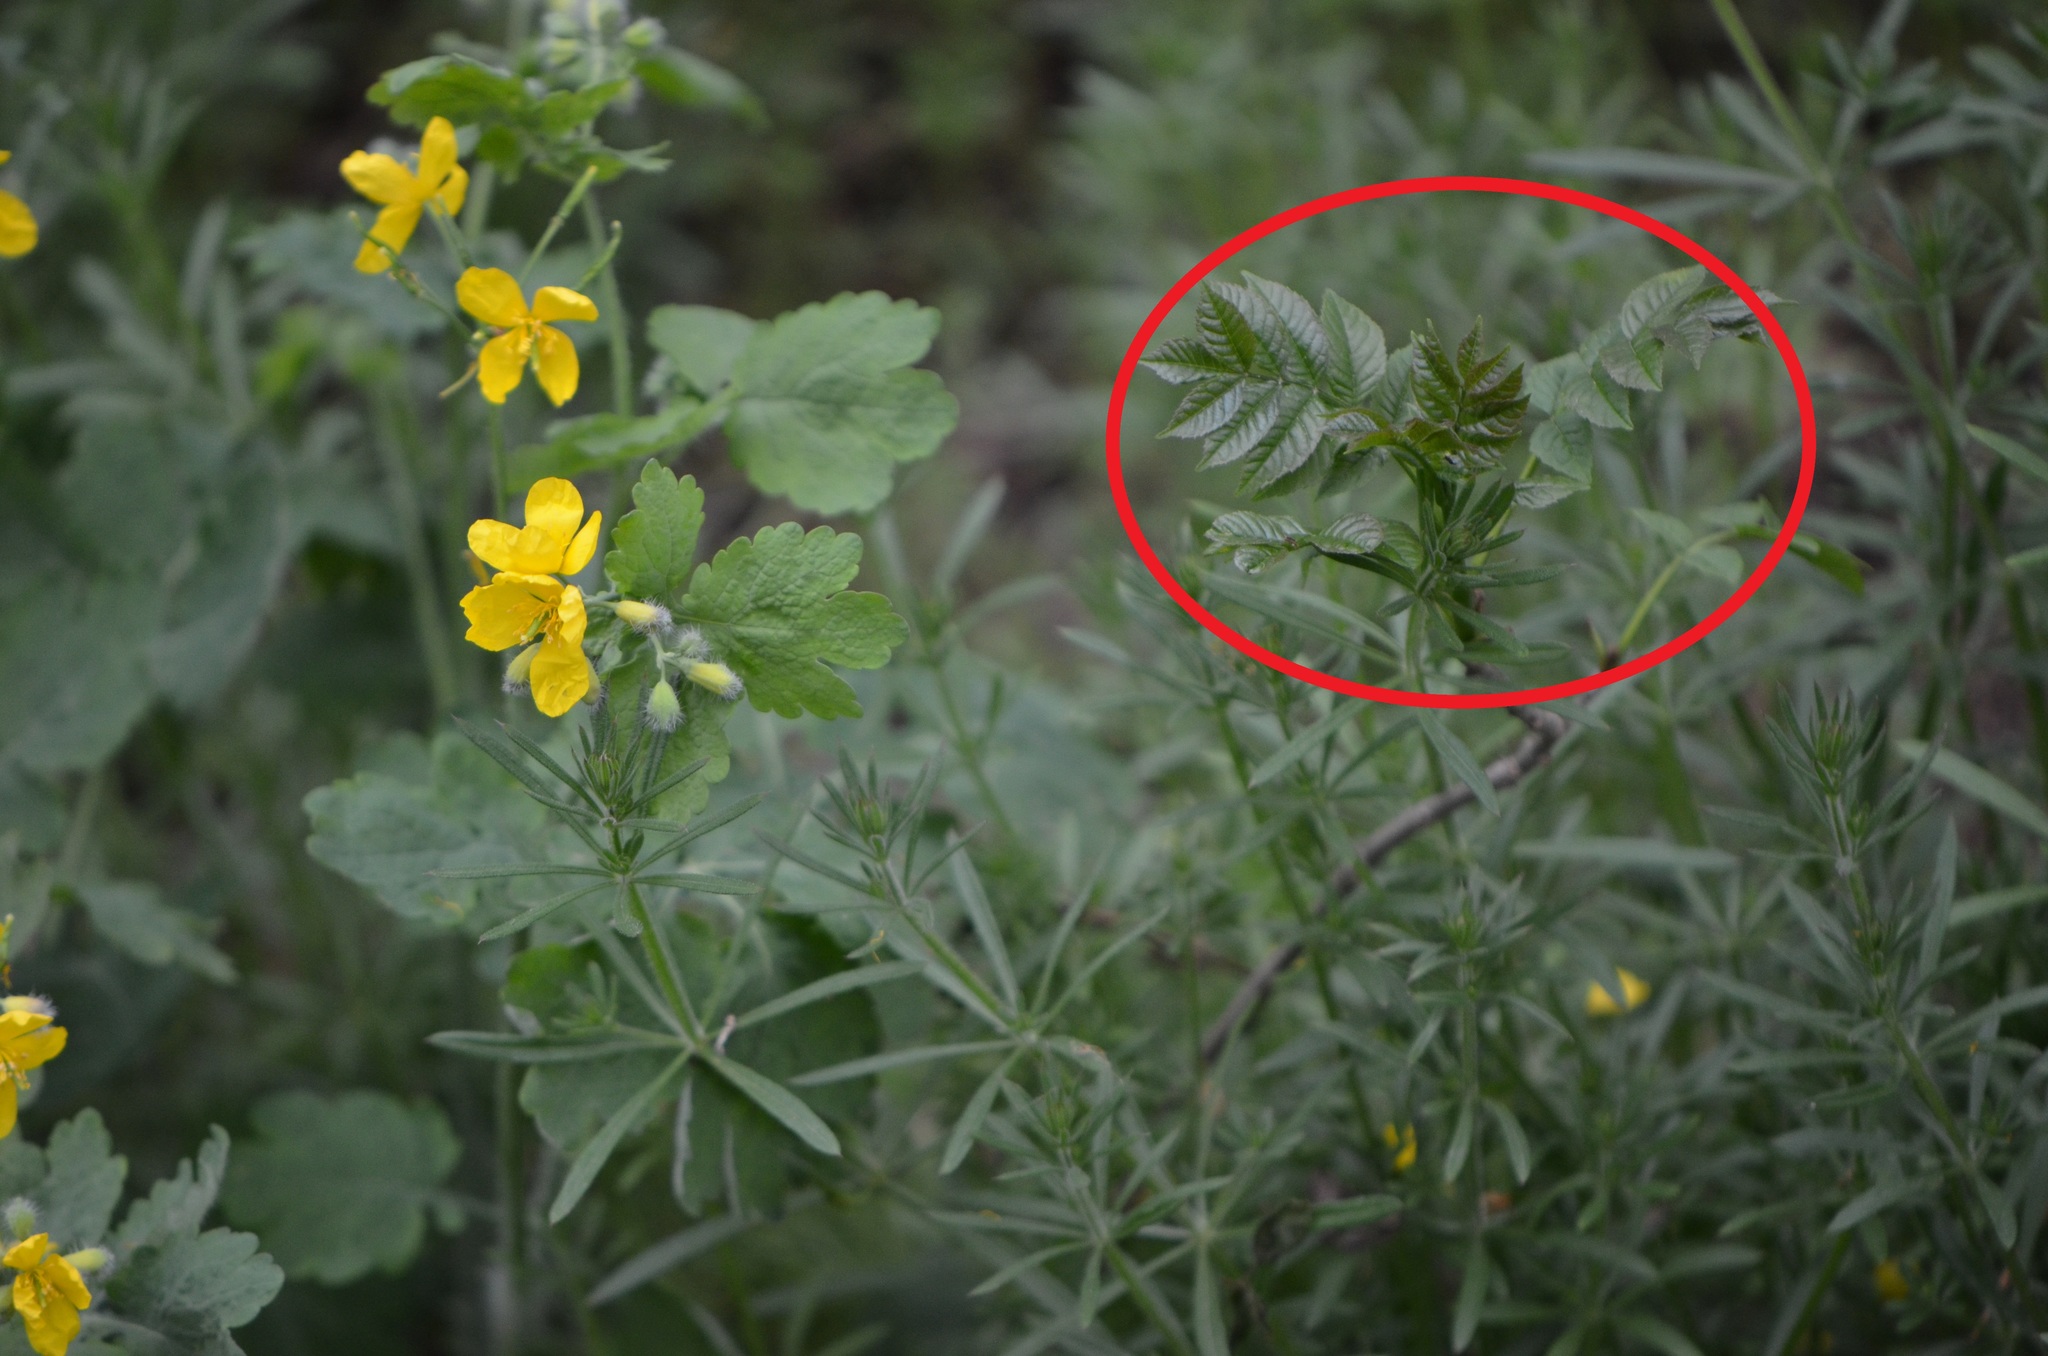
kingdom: Plantae
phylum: Tracheophyta
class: Magnoliopsida
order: Lamiales
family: Oleaceae
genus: Fraxinus
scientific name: Fraxinus excelsior
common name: European ash
